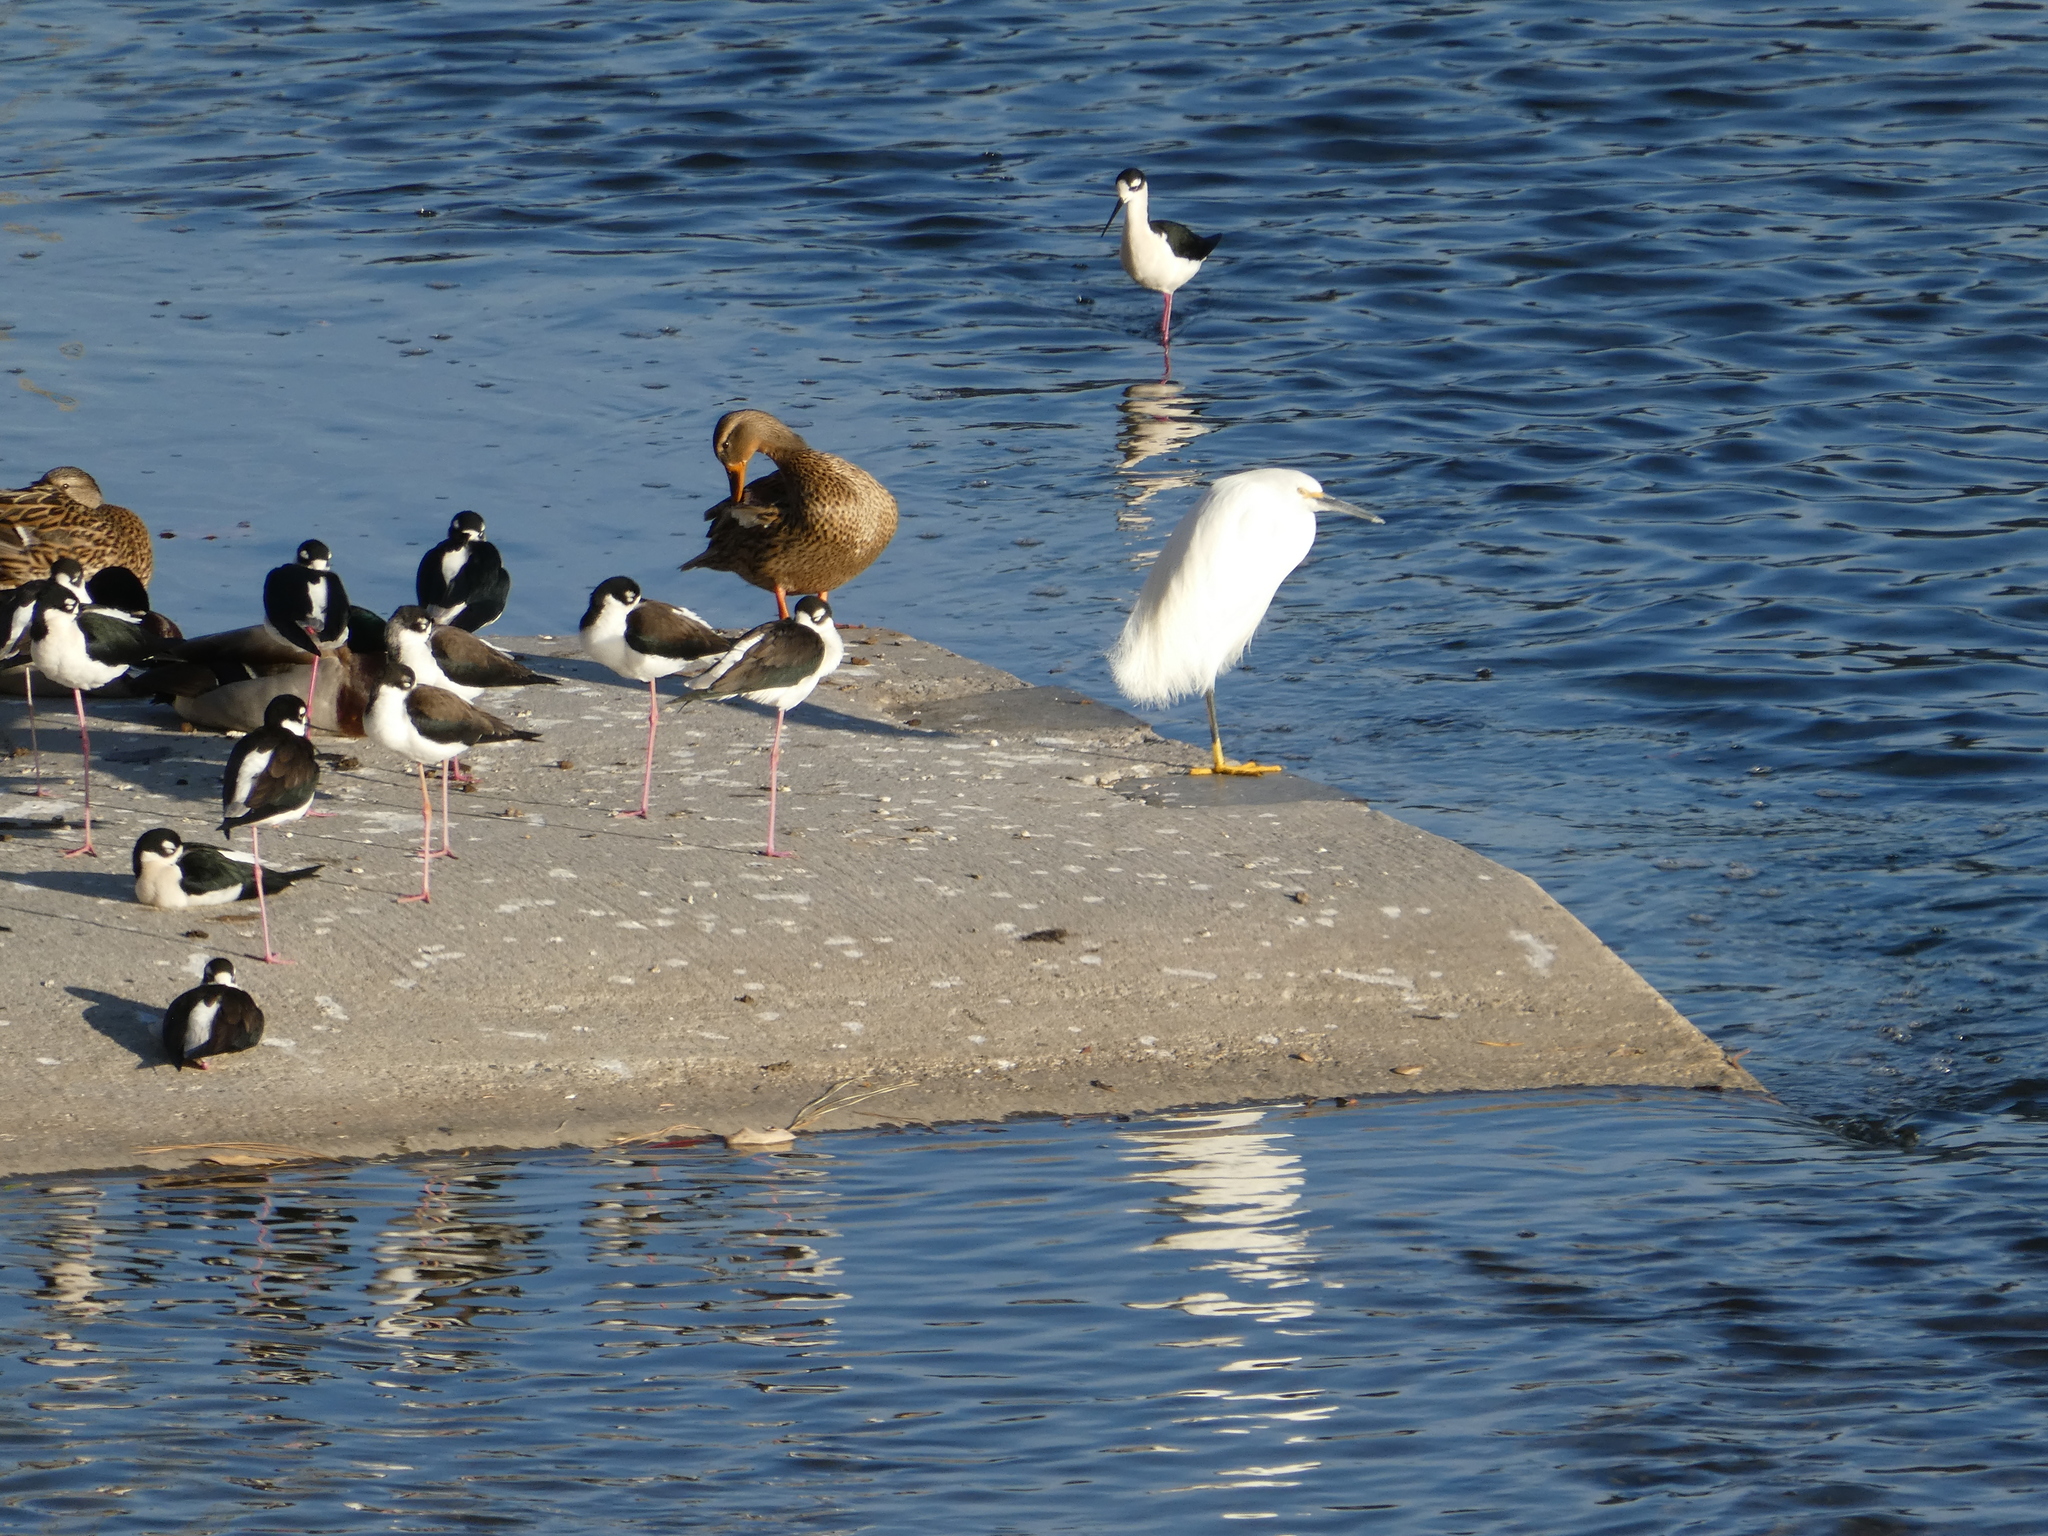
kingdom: Animalia
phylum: Chordata
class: Aves
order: Pelecaniformes
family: Ardeidae
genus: Egretta
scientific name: Egretta thula
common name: Snowy egret
